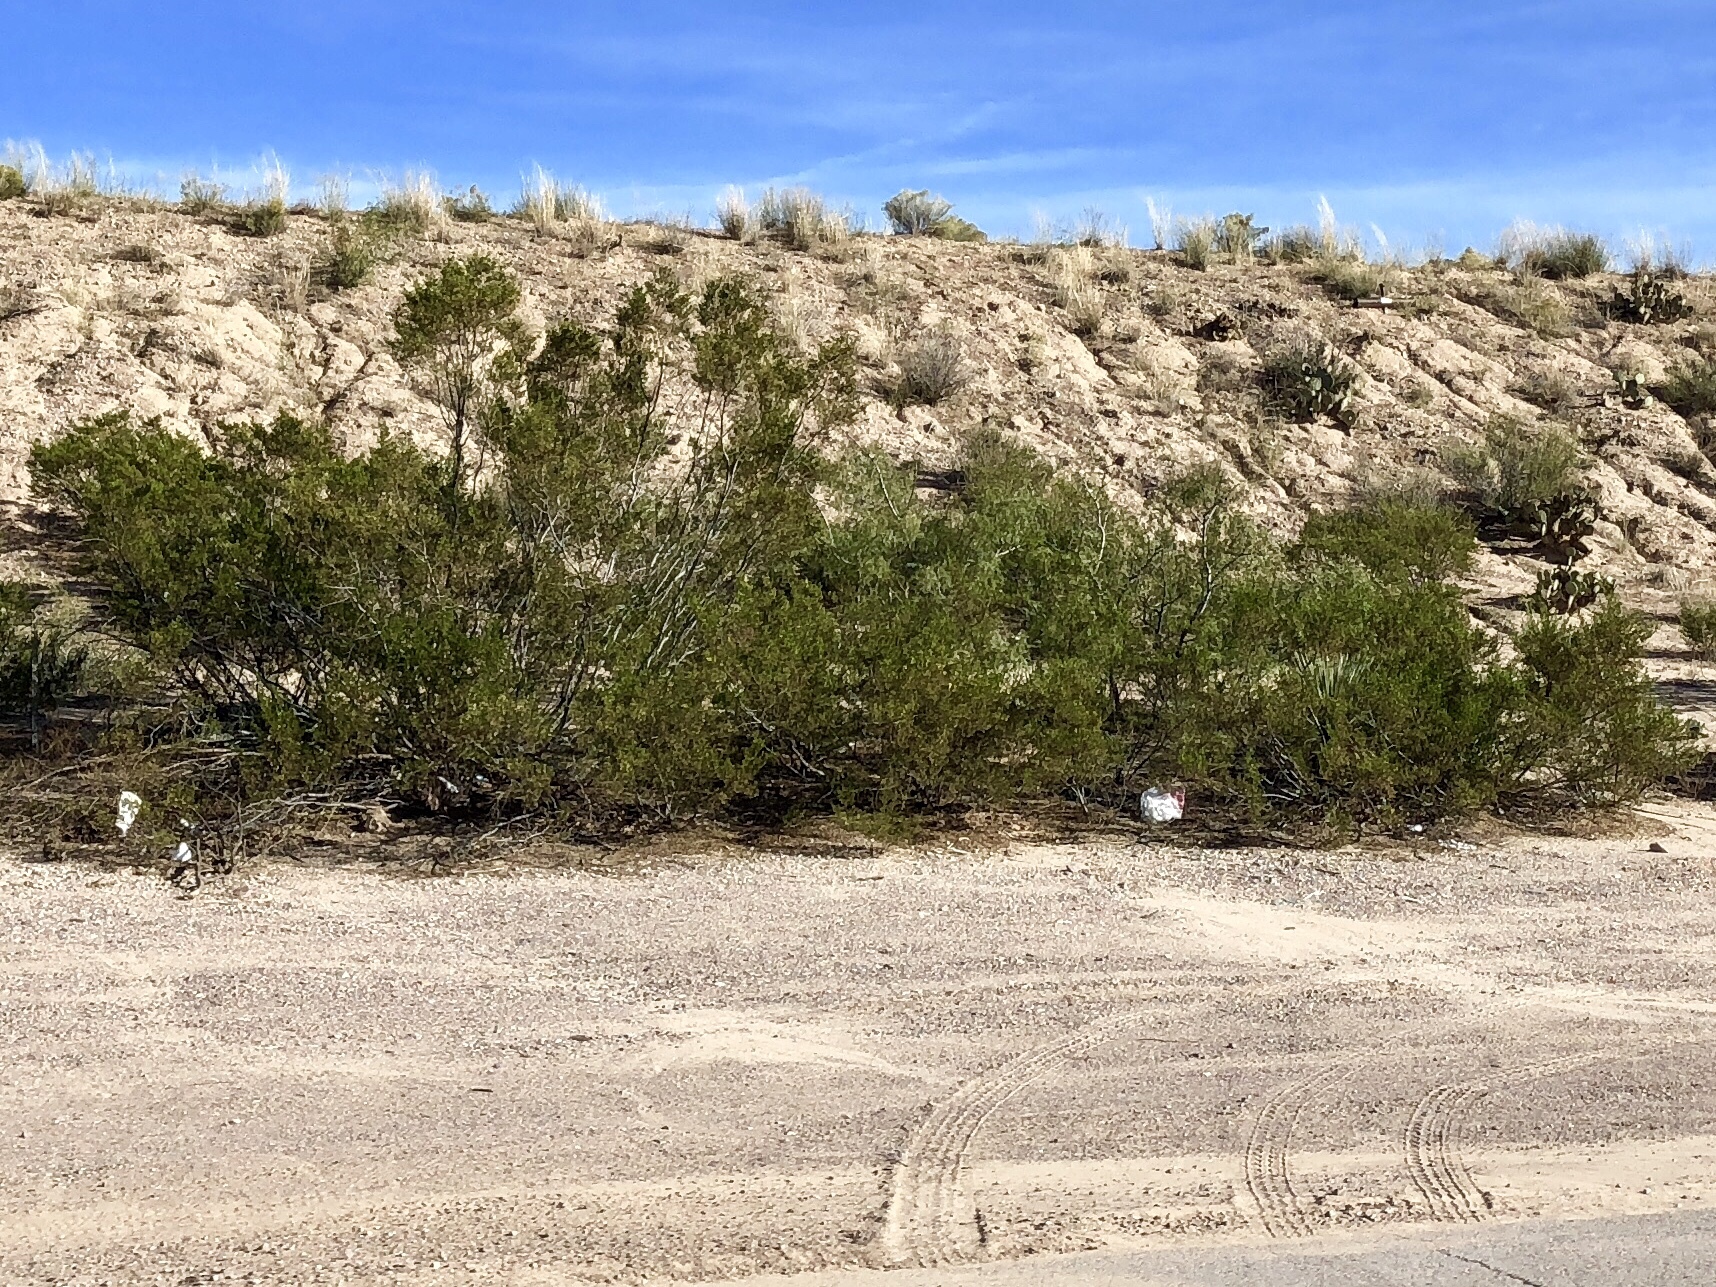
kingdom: Plantae
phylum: Tracheophyta
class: Magnoliopsida
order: Zygophyllales
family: Zygophyllaceae
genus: Larrea
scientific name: Larrea tridentata
